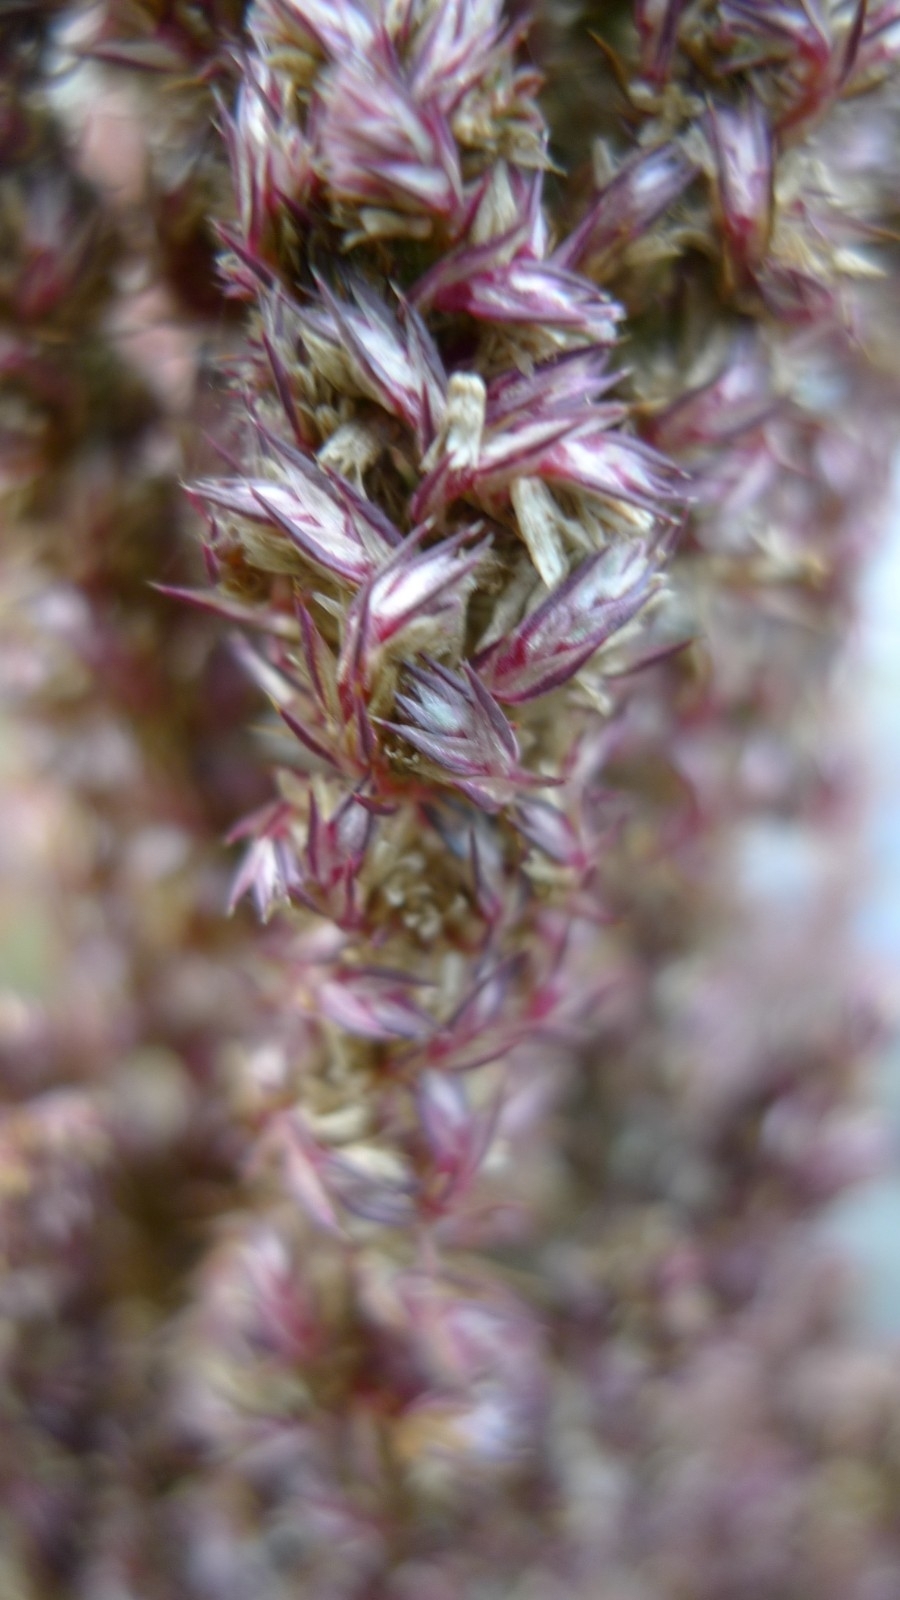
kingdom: Plantae
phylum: Tracheophyta
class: Magnoliopsida
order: Caryophyllales
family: Amaranthaceae
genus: Amaranthus
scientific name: Amaranthus retroflexus
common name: Redroot amaranth
